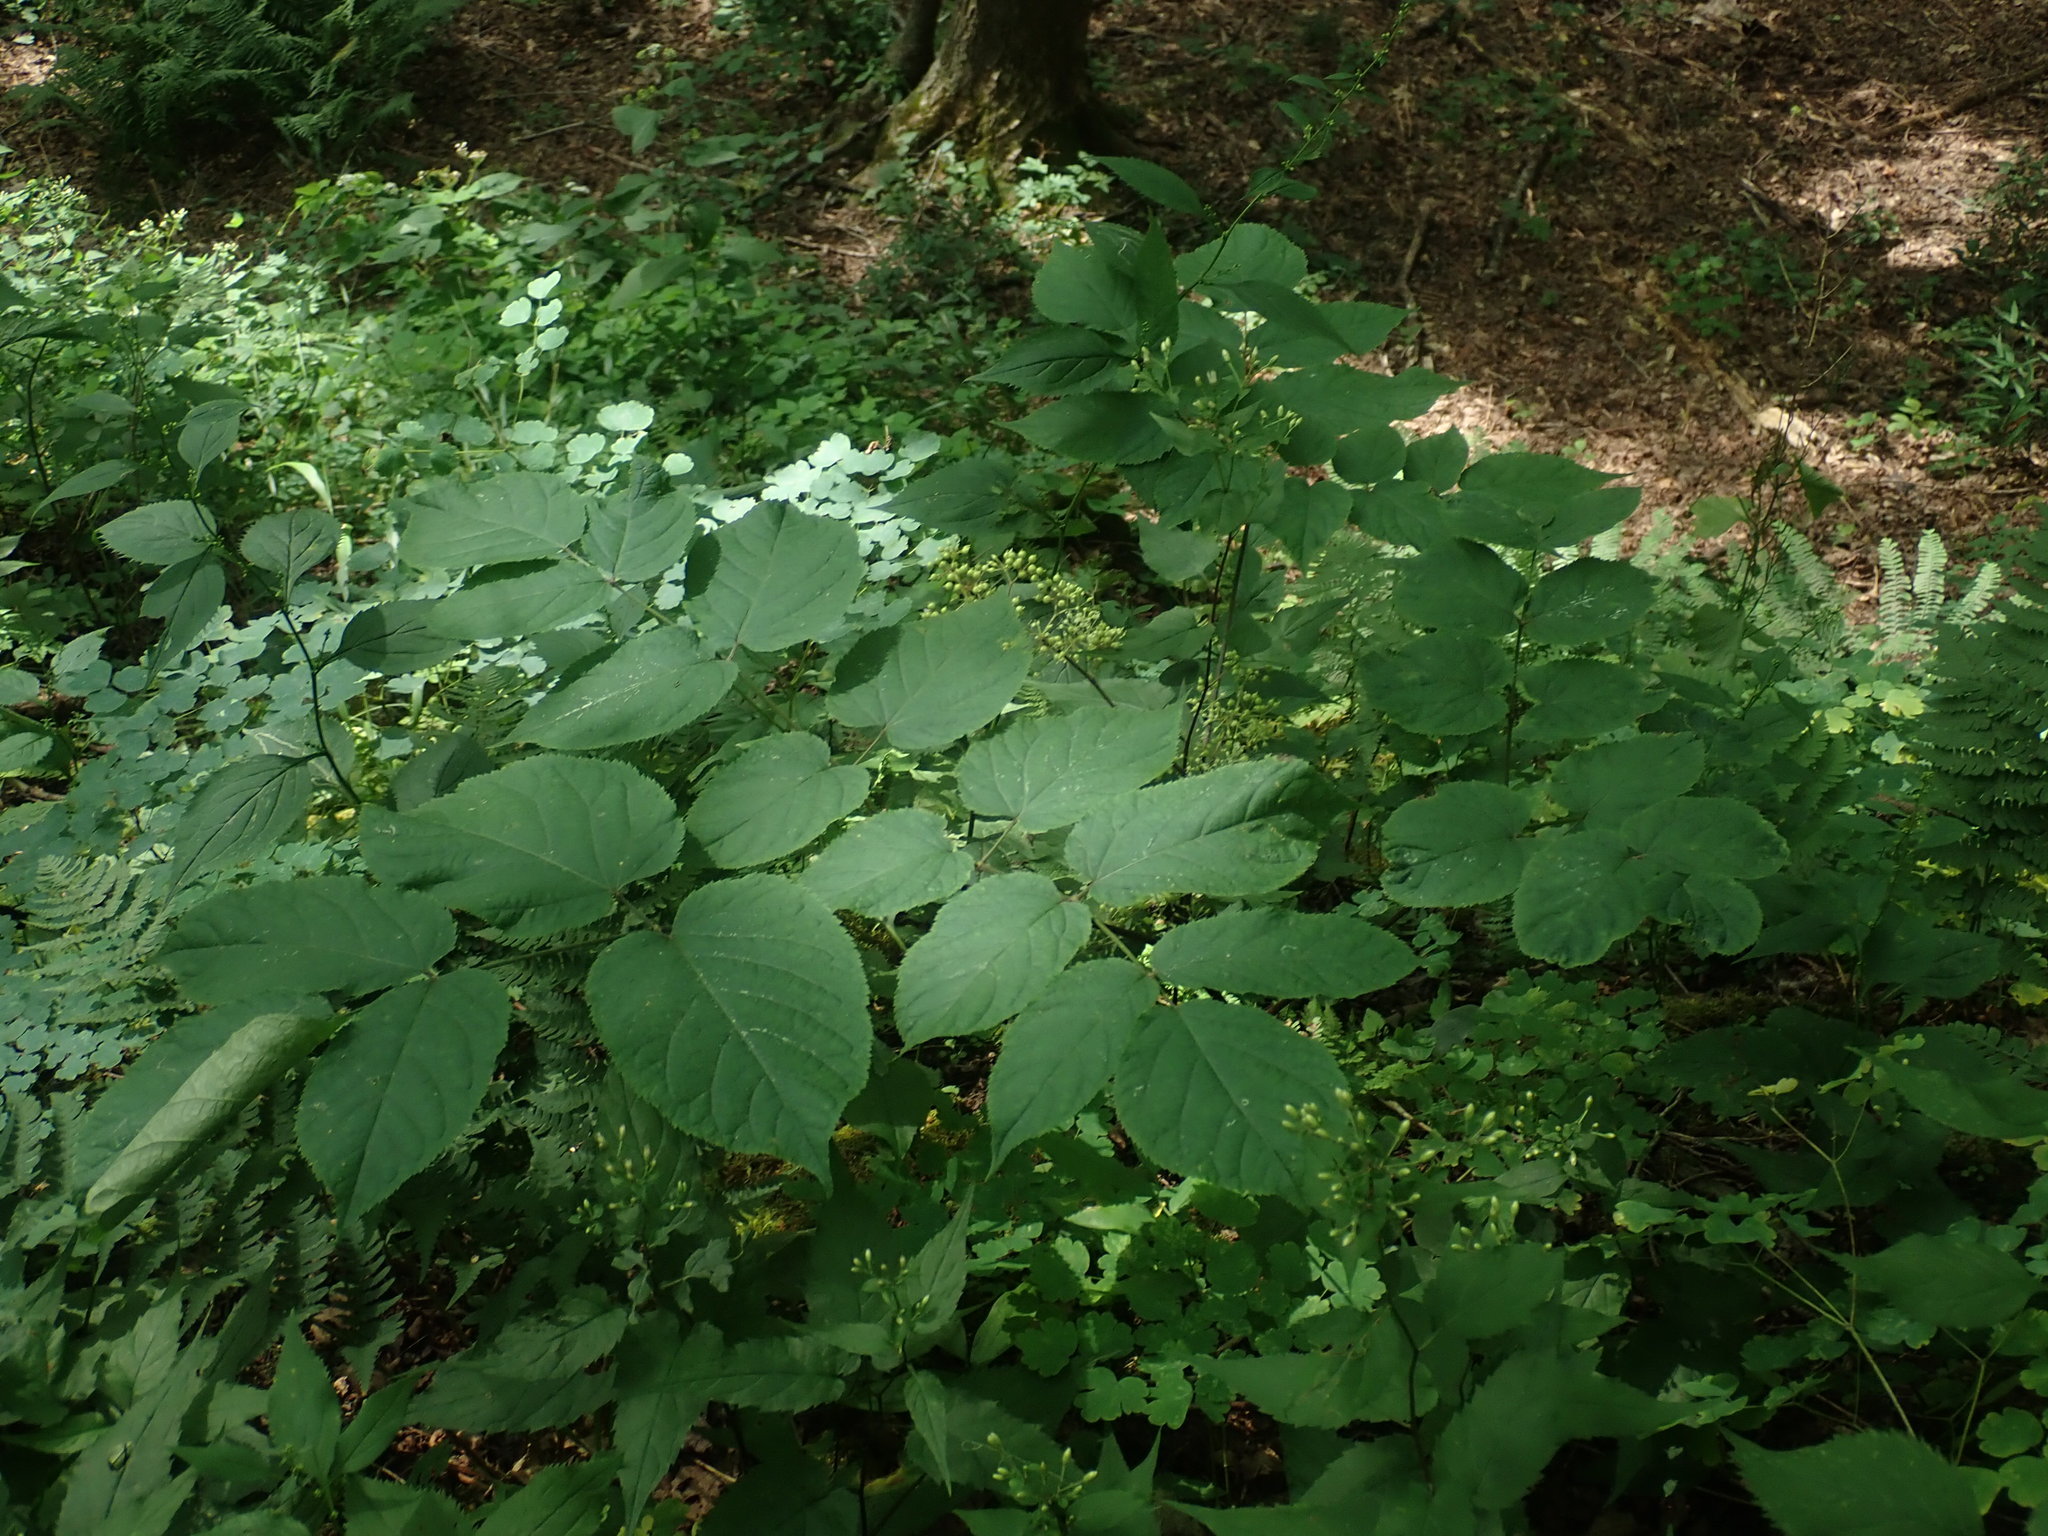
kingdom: Plantae
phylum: Tracheophyta
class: Magnoliopsida
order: Apiales
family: Araliaceae
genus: Aralia
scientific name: Aralia racemosa
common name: American-spikenard
